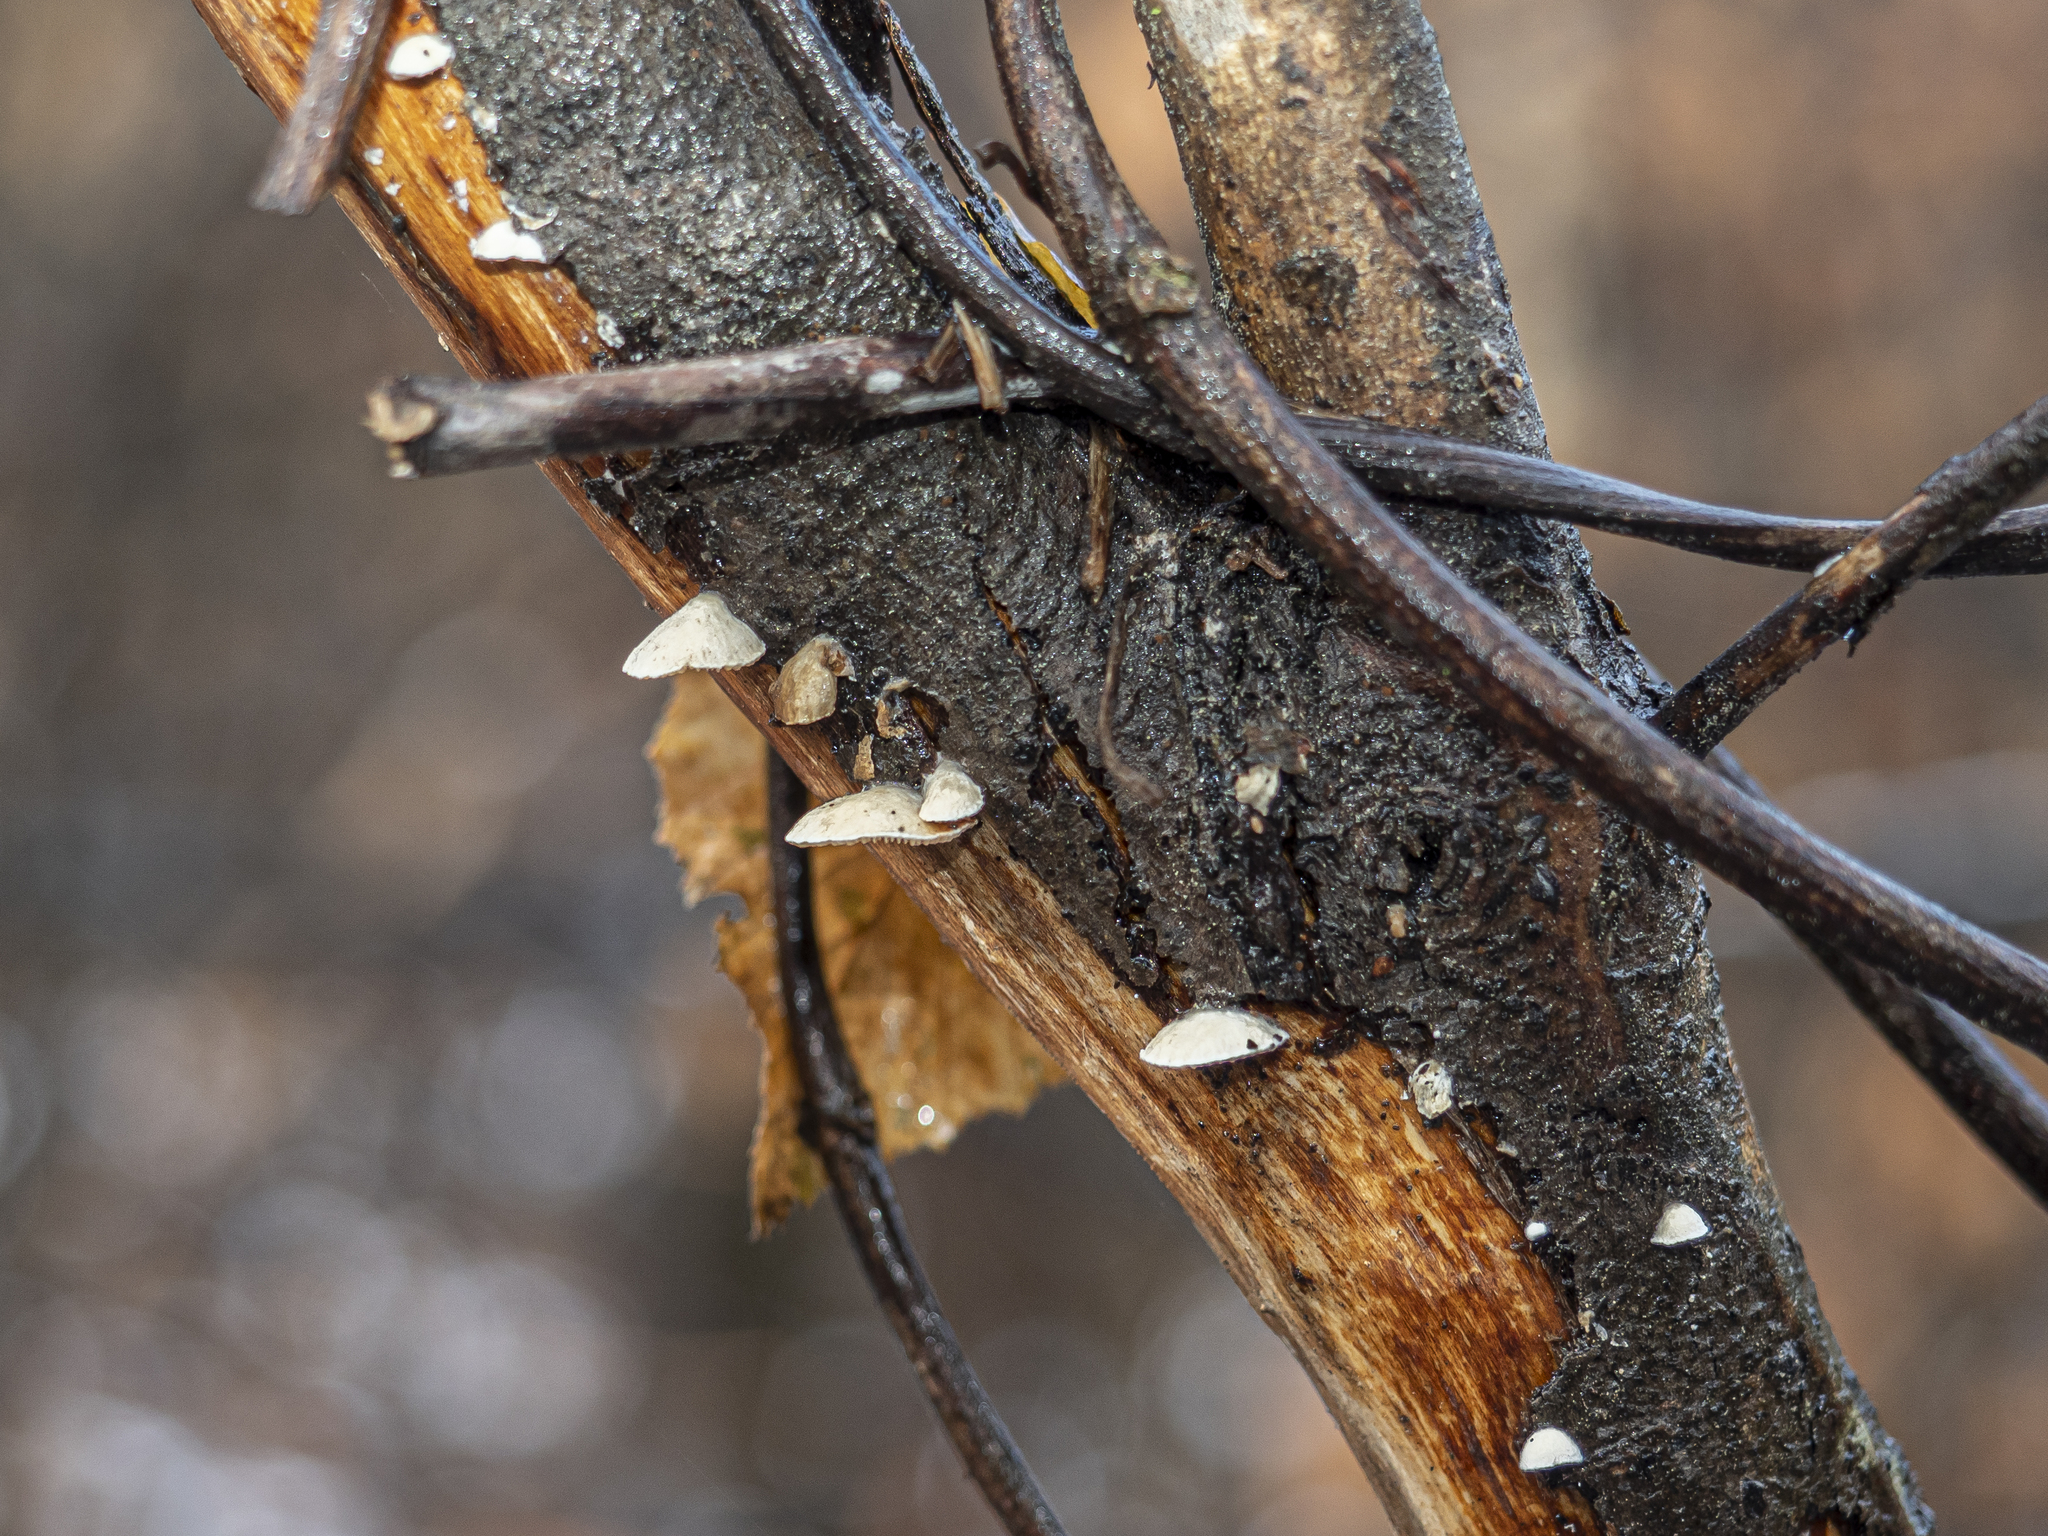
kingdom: Fungi
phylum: Basidiomycota
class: Agaricomycetes
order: Agaricales
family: Crepidotaceae
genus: Crepidotus
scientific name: Crepidotus cesatii
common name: Roundspored oysterling
